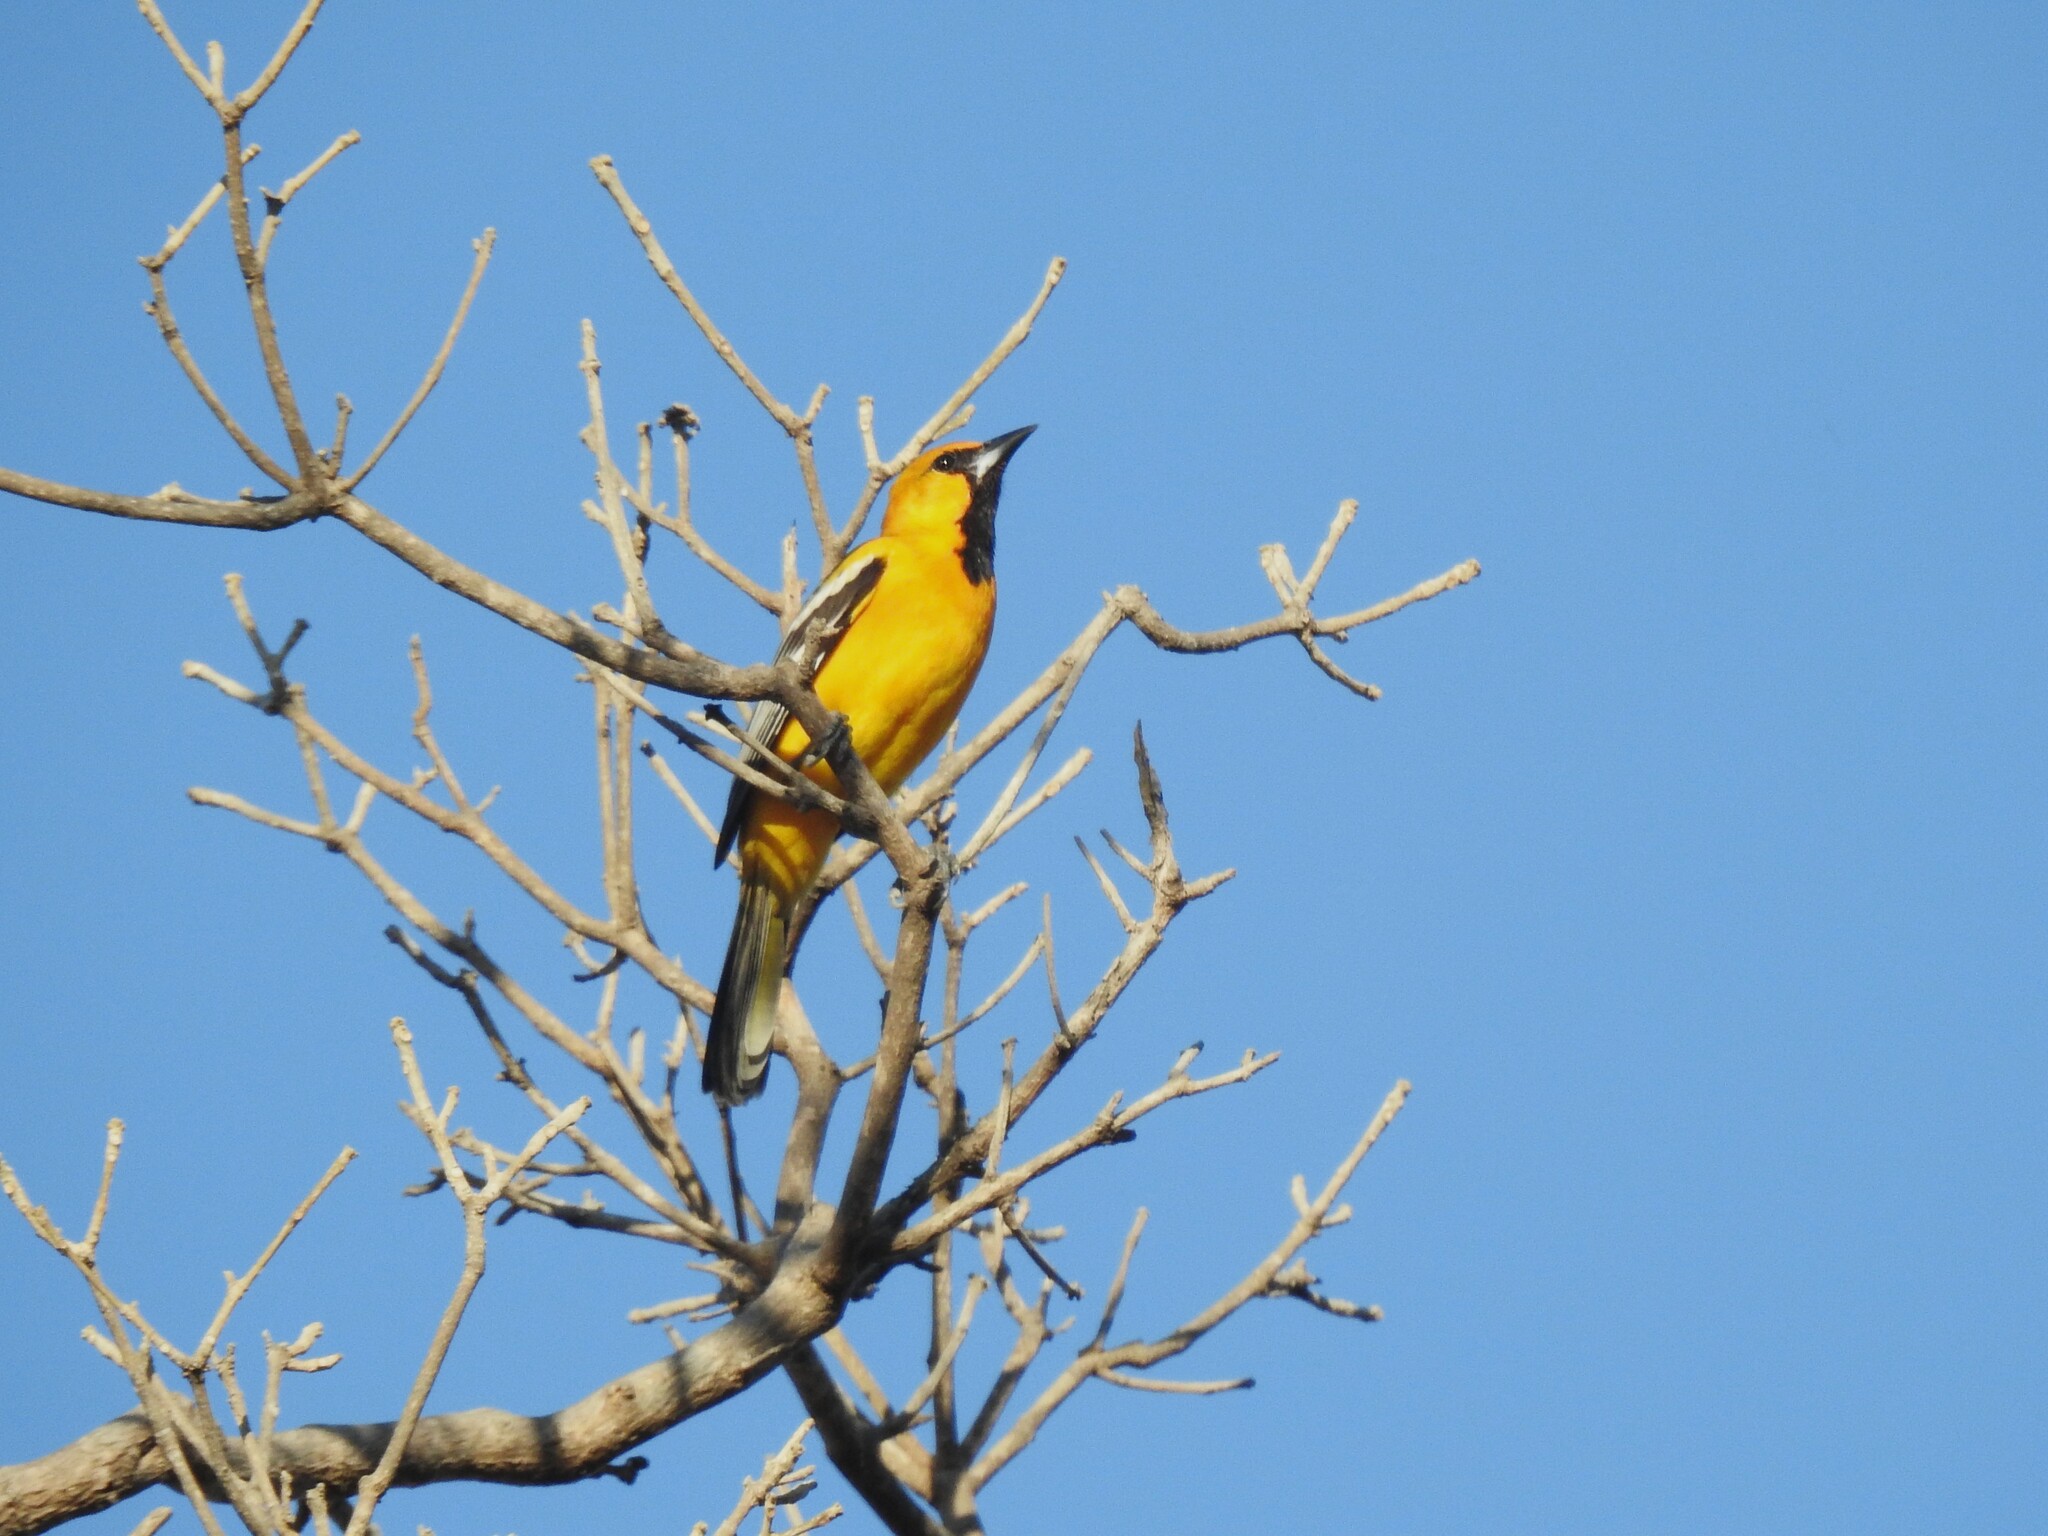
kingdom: Animalia
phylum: Chordata
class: Aves
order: Passeriformes
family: Icteridae
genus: Icterus
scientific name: Icterus pustulatus
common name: Streak-backed oriole
